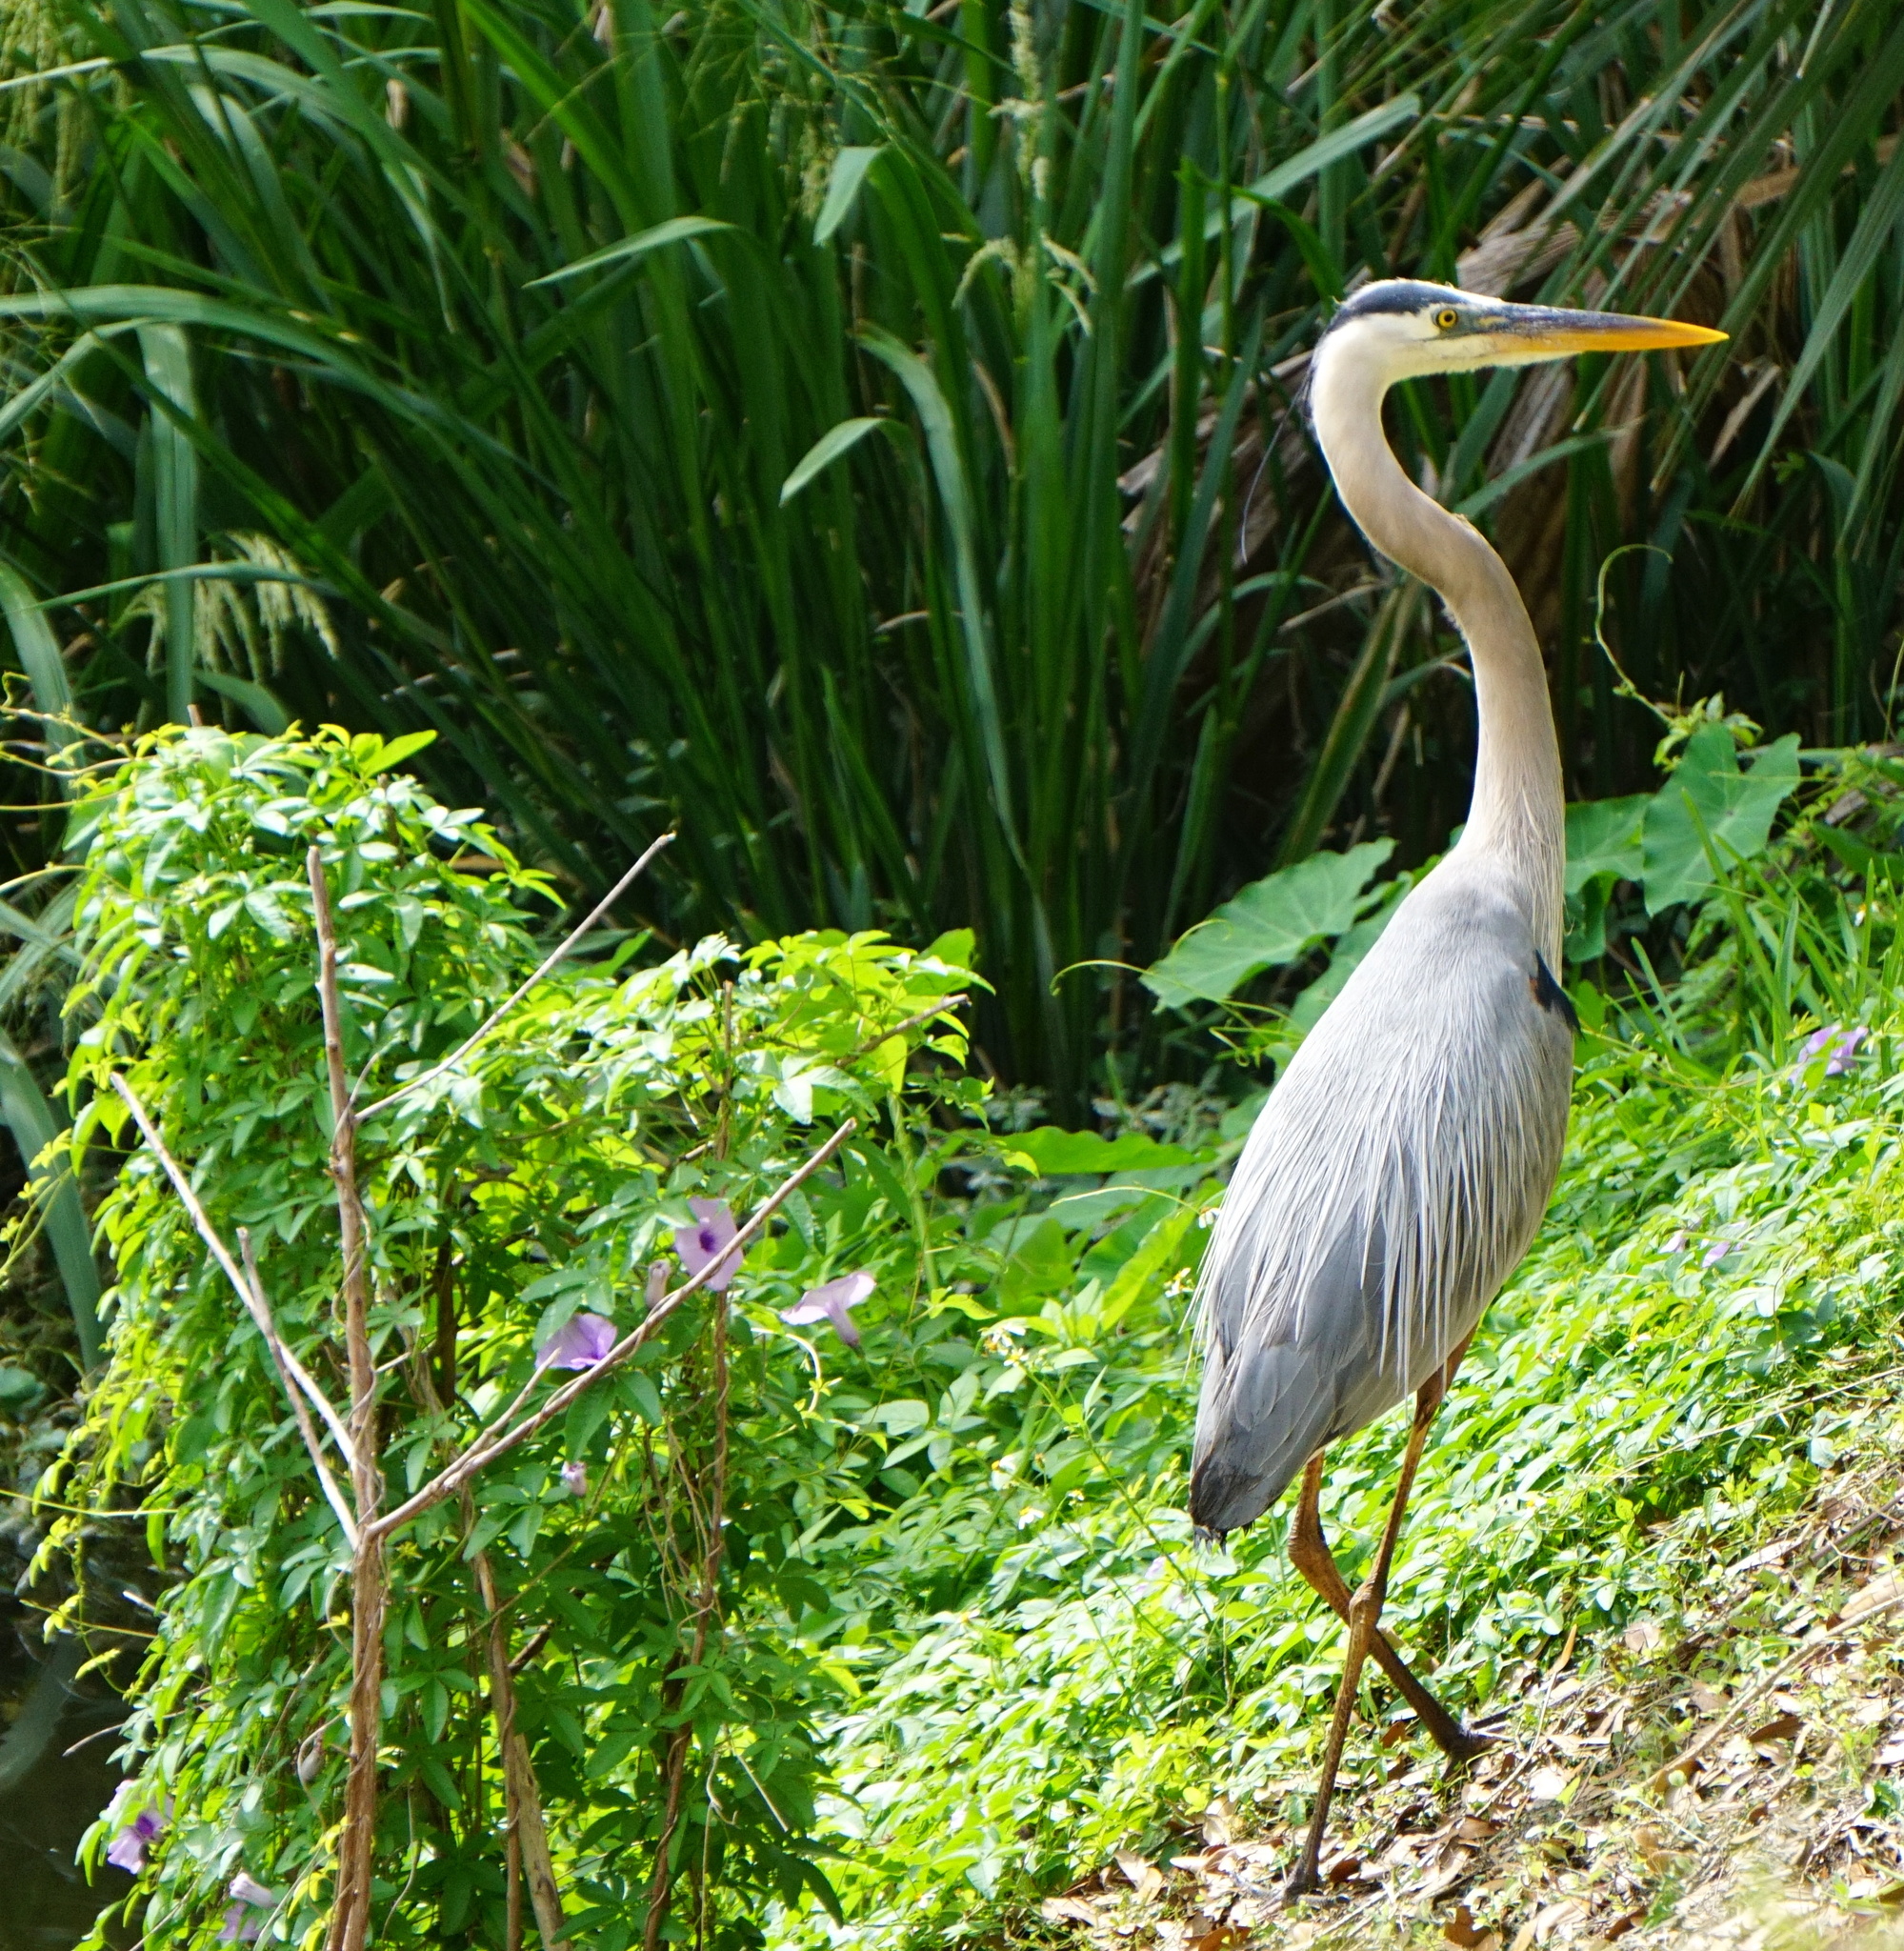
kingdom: Animalia
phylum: Chordata
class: Aves
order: Pelecaniformes
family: Ardeidae
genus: Ardea
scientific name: Ardea herodias
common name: Great blue heron
